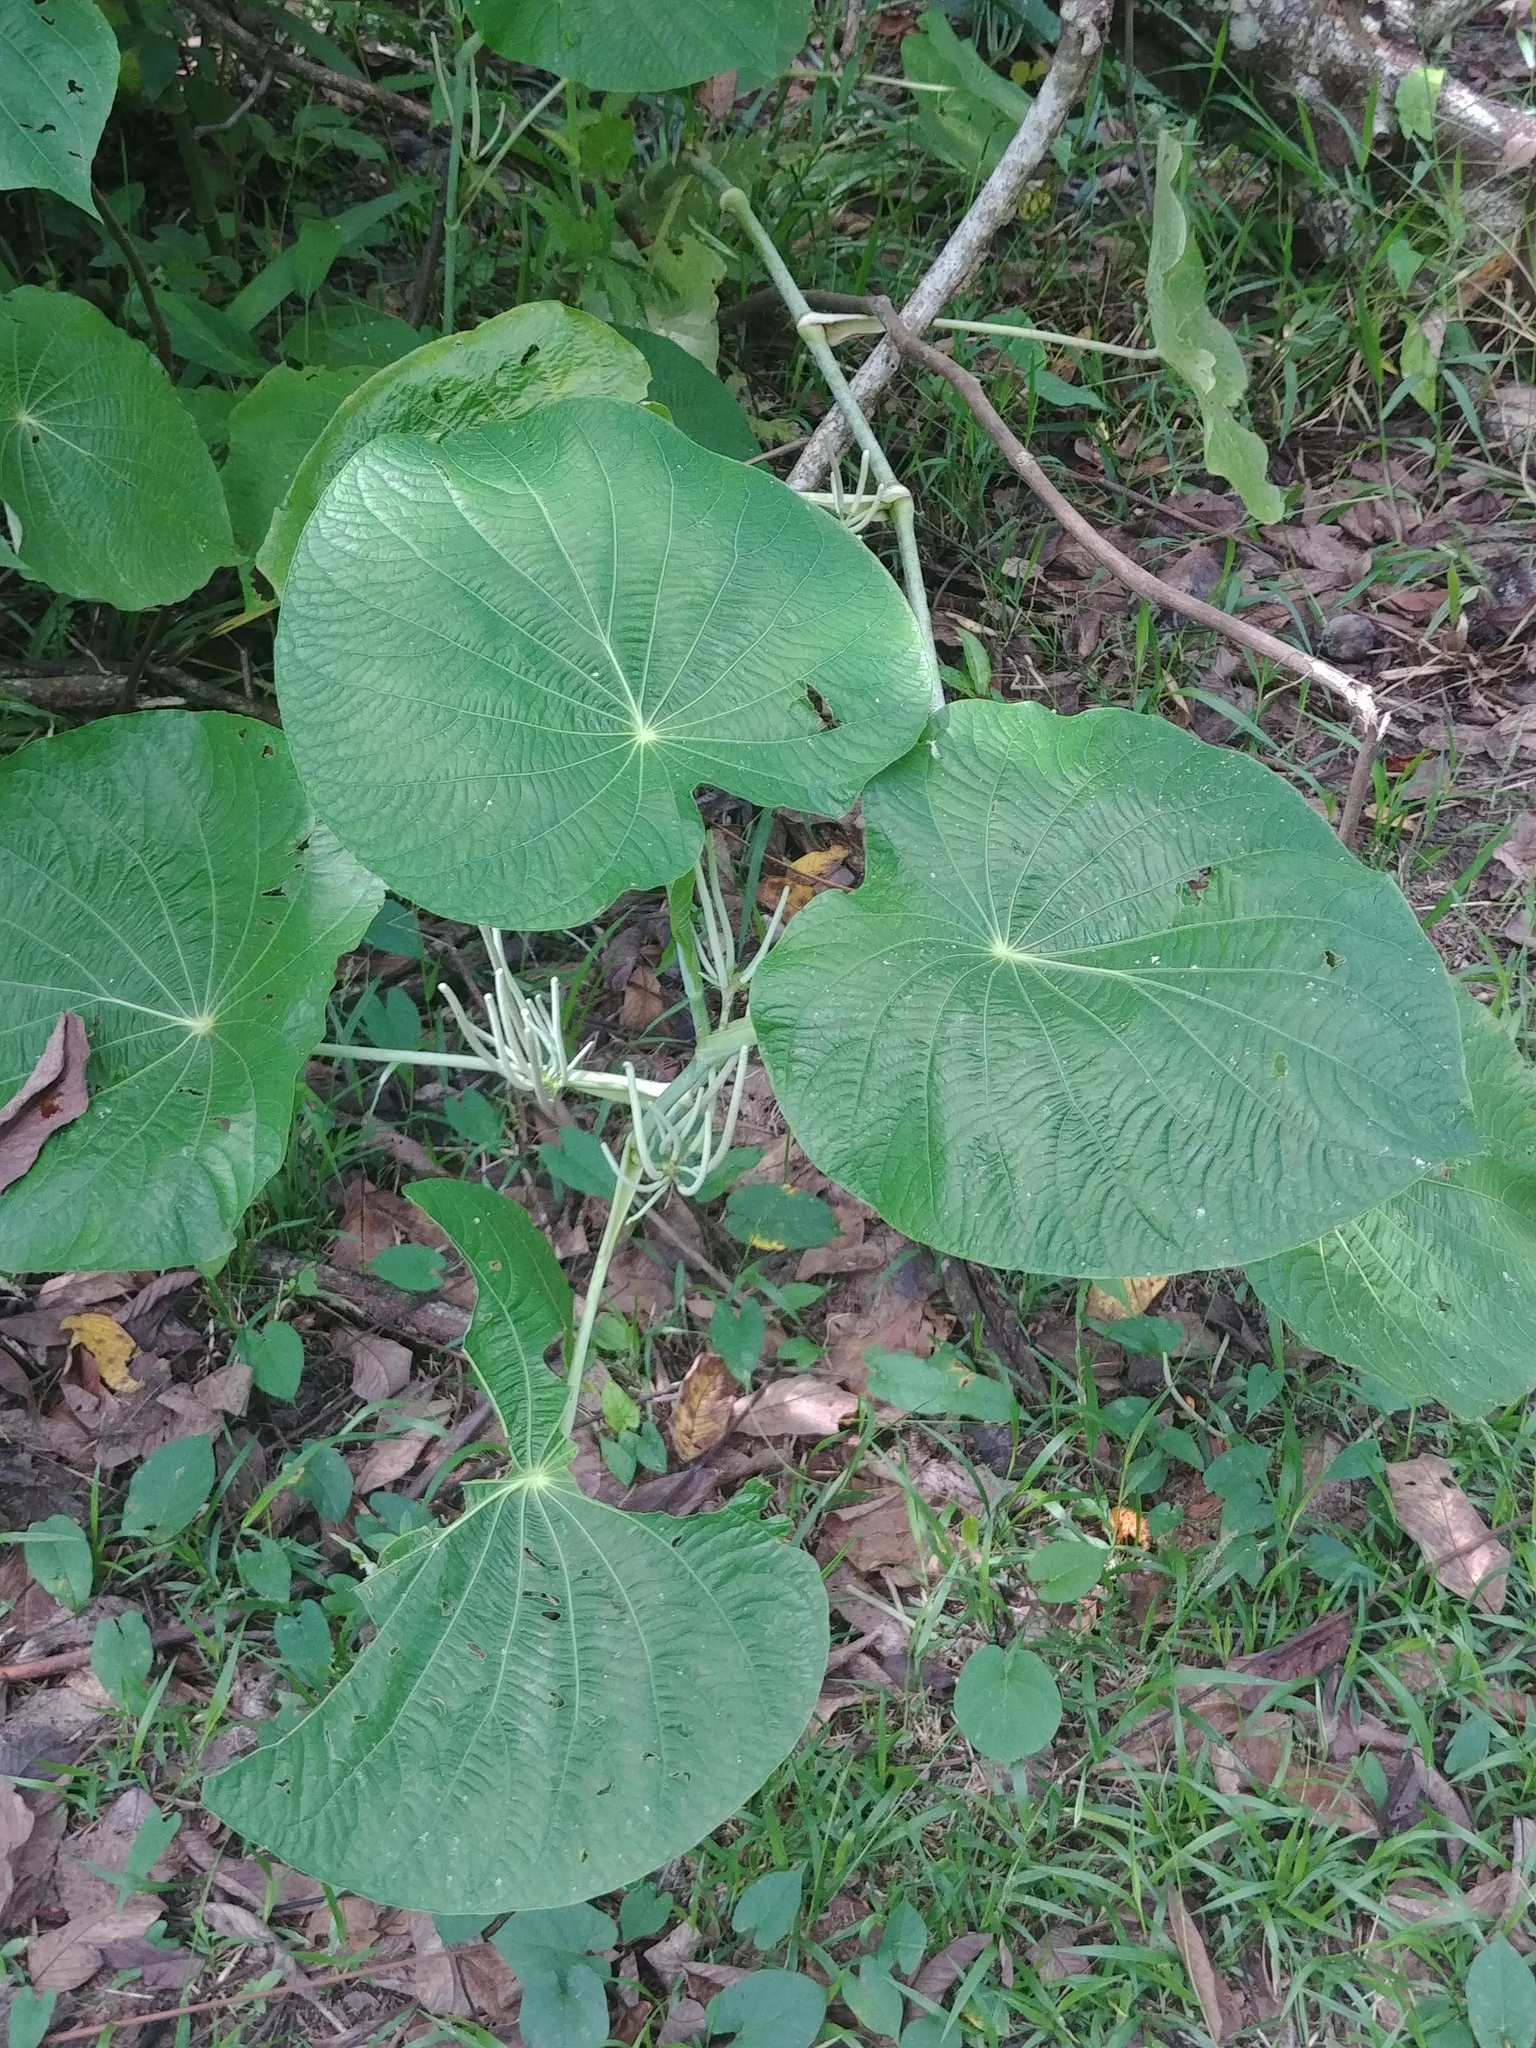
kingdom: Plantae
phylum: Tracheophyta
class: Magnoliopsida
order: Piperales
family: Piperaceae
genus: Piper
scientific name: Piper peltatum
